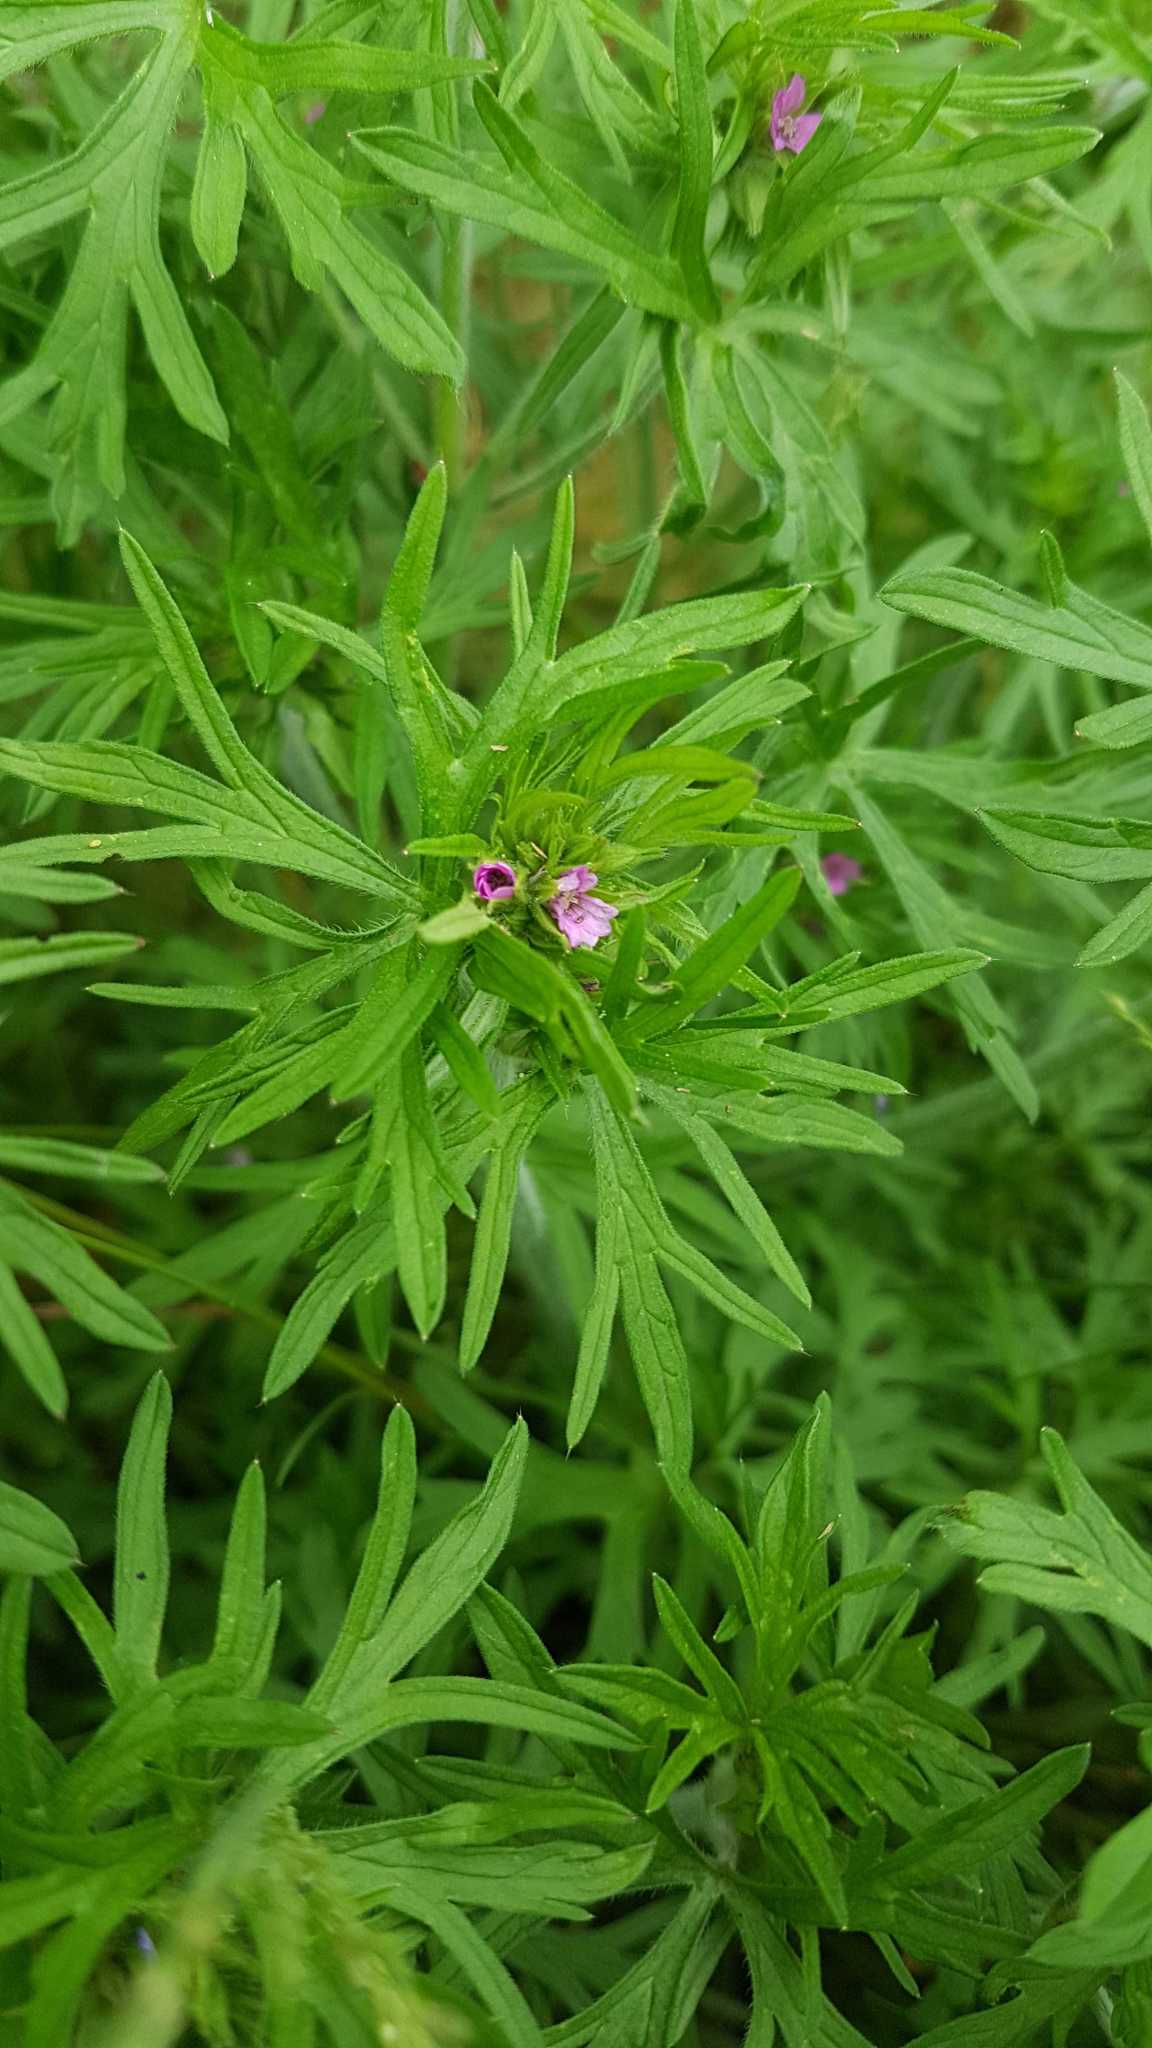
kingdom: Plantae
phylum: Tracheophyta
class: Magnoliopsida
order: Geraniales
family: Geraniaceae
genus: Geranium
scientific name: Geranium dissectum
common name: Cut-leaved crane's-bill
